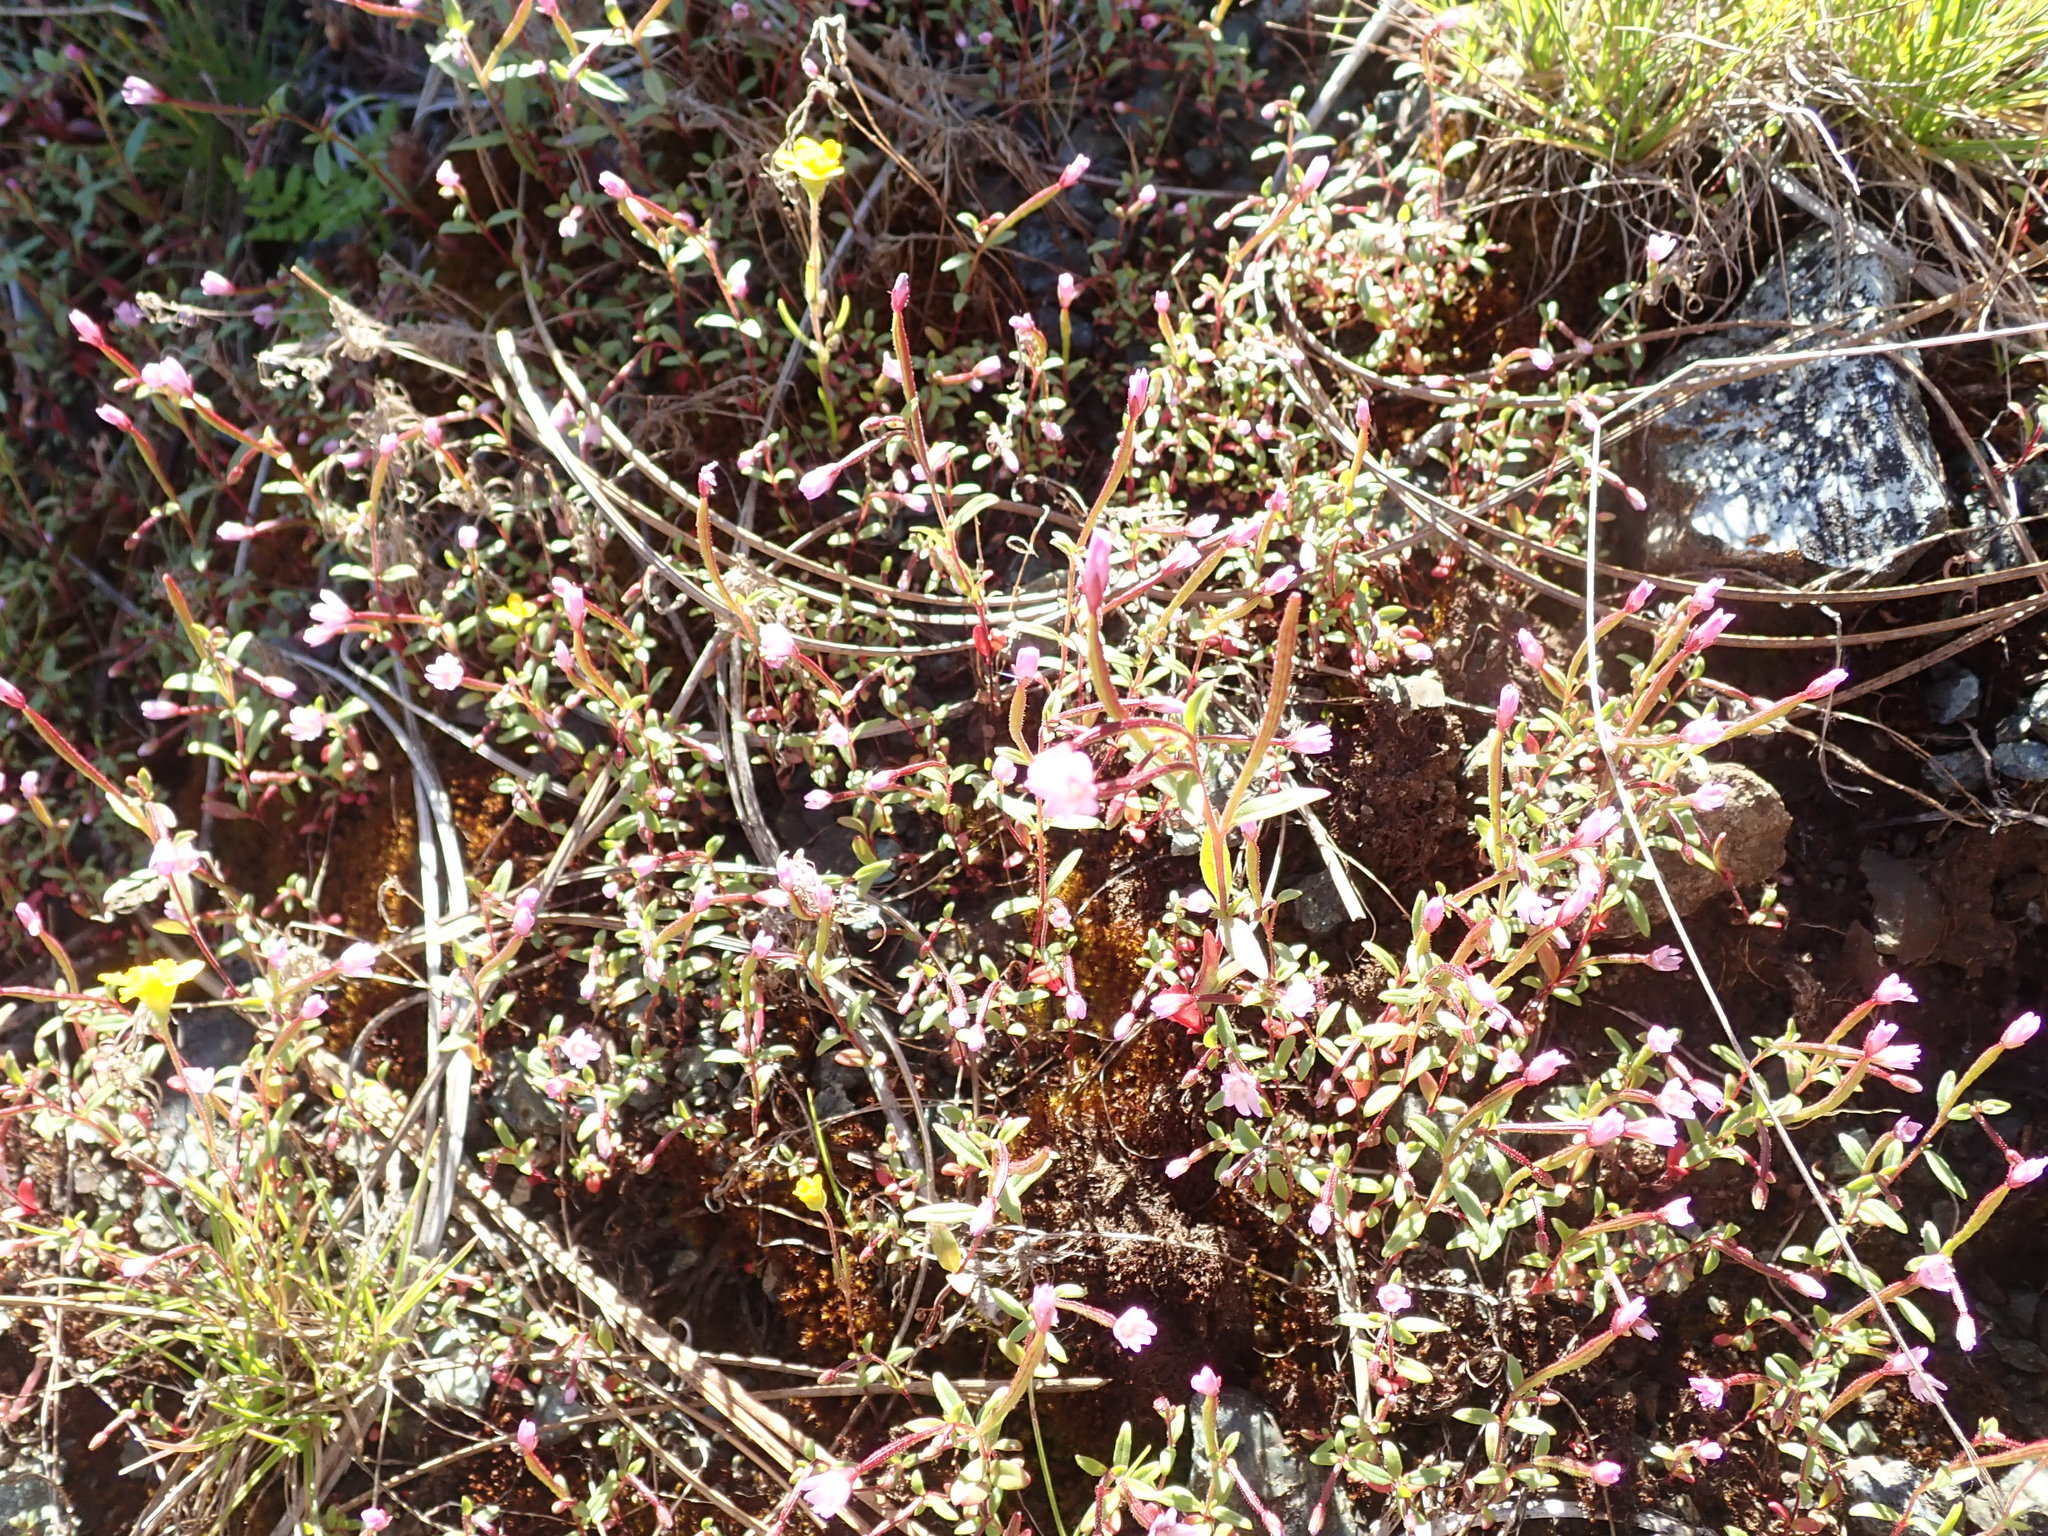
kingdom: Plantae
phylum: Tracheophyta
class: Magnoliopsida
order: Myrtales
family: Onagraceae
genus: Epilobium
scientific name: Epilobium minutum
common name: Chaparral willowherb
